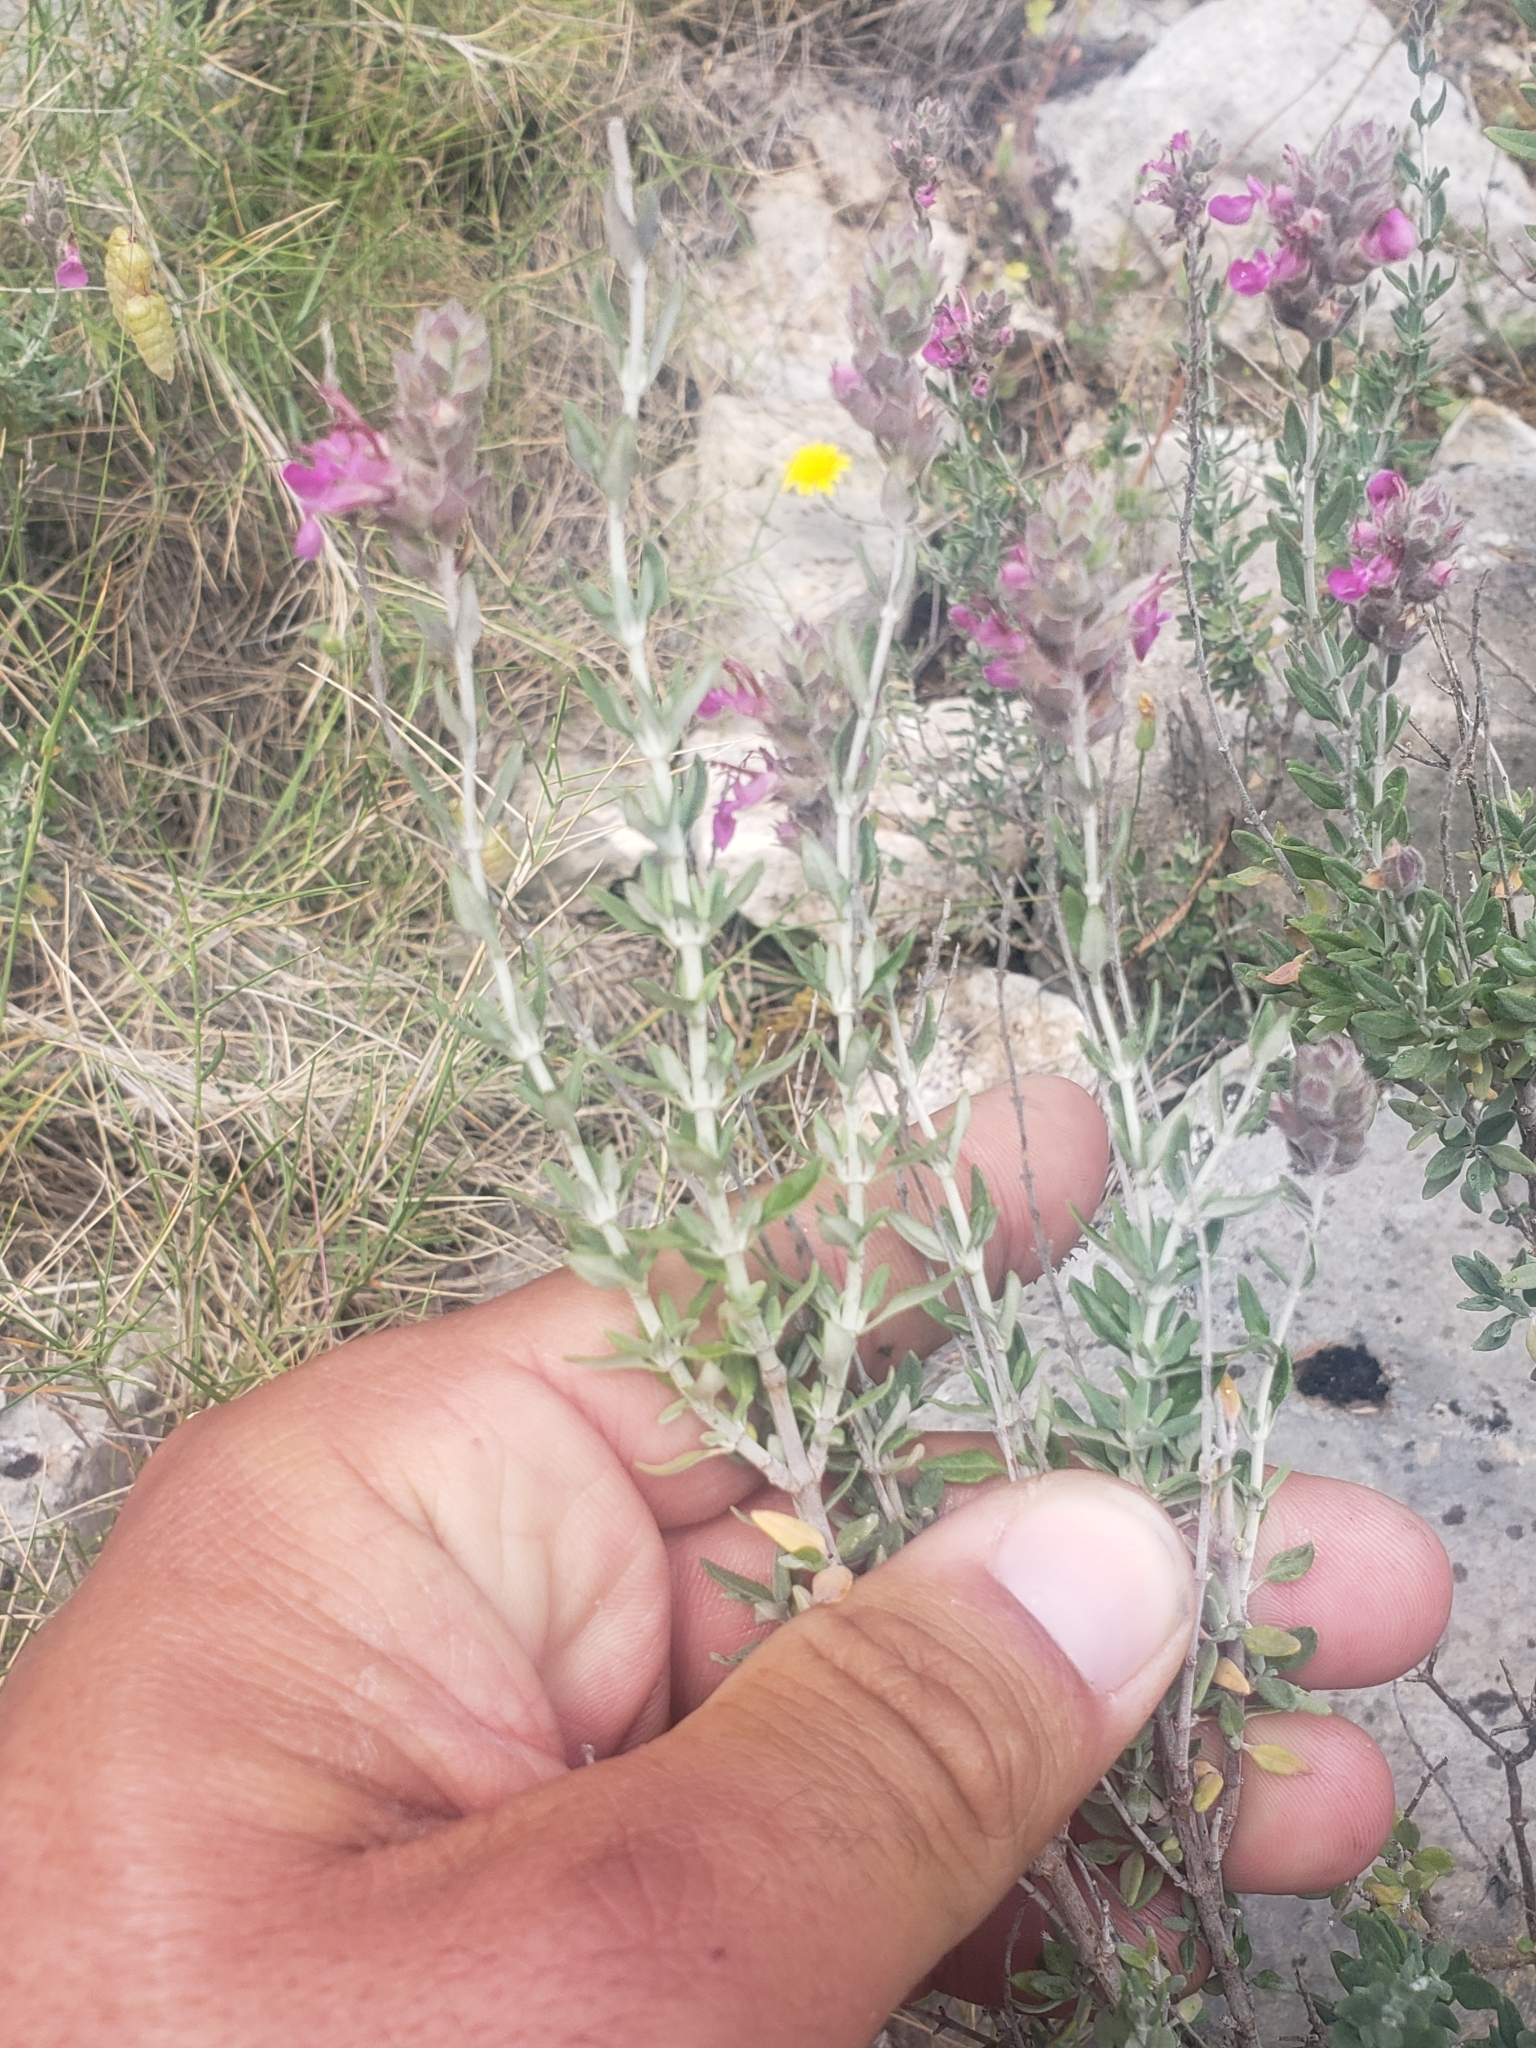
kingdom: Plantae
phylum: Tracheophyta
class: Magnoliopsida
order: Lamiales
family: Lamiaceae
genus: Teucrium
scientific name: Teucrium marum
